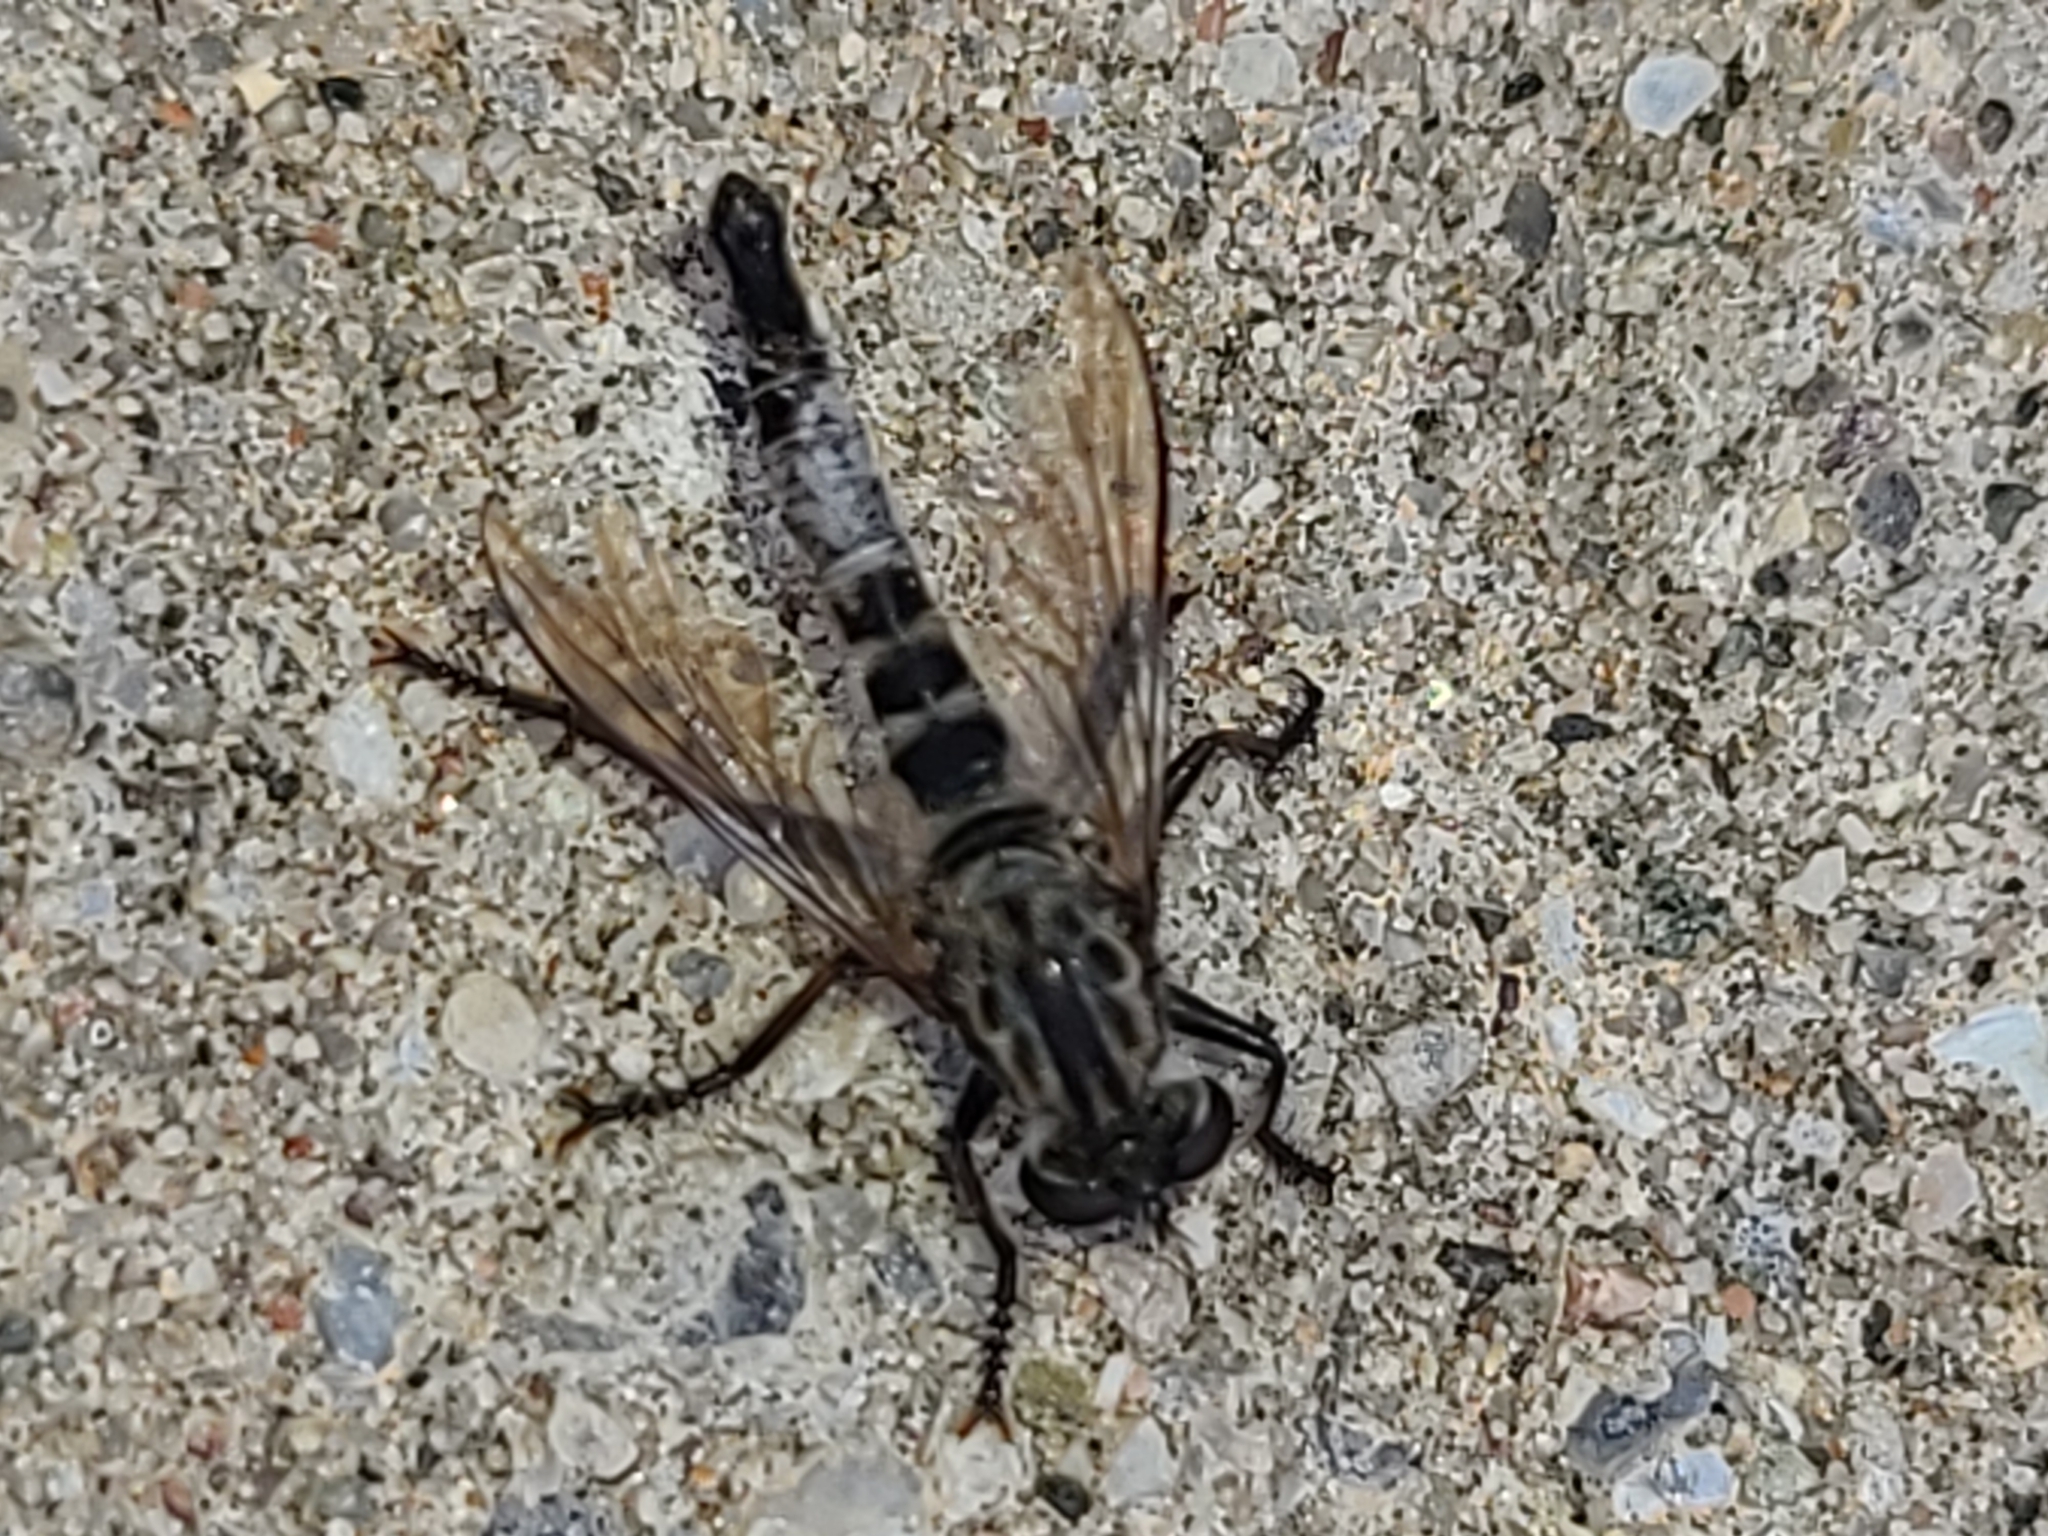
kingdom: Animalia
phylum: Arthropoda
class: Insecta
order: Diptera
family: Asilidae
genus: Efferia
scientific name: Efferia aestuans
